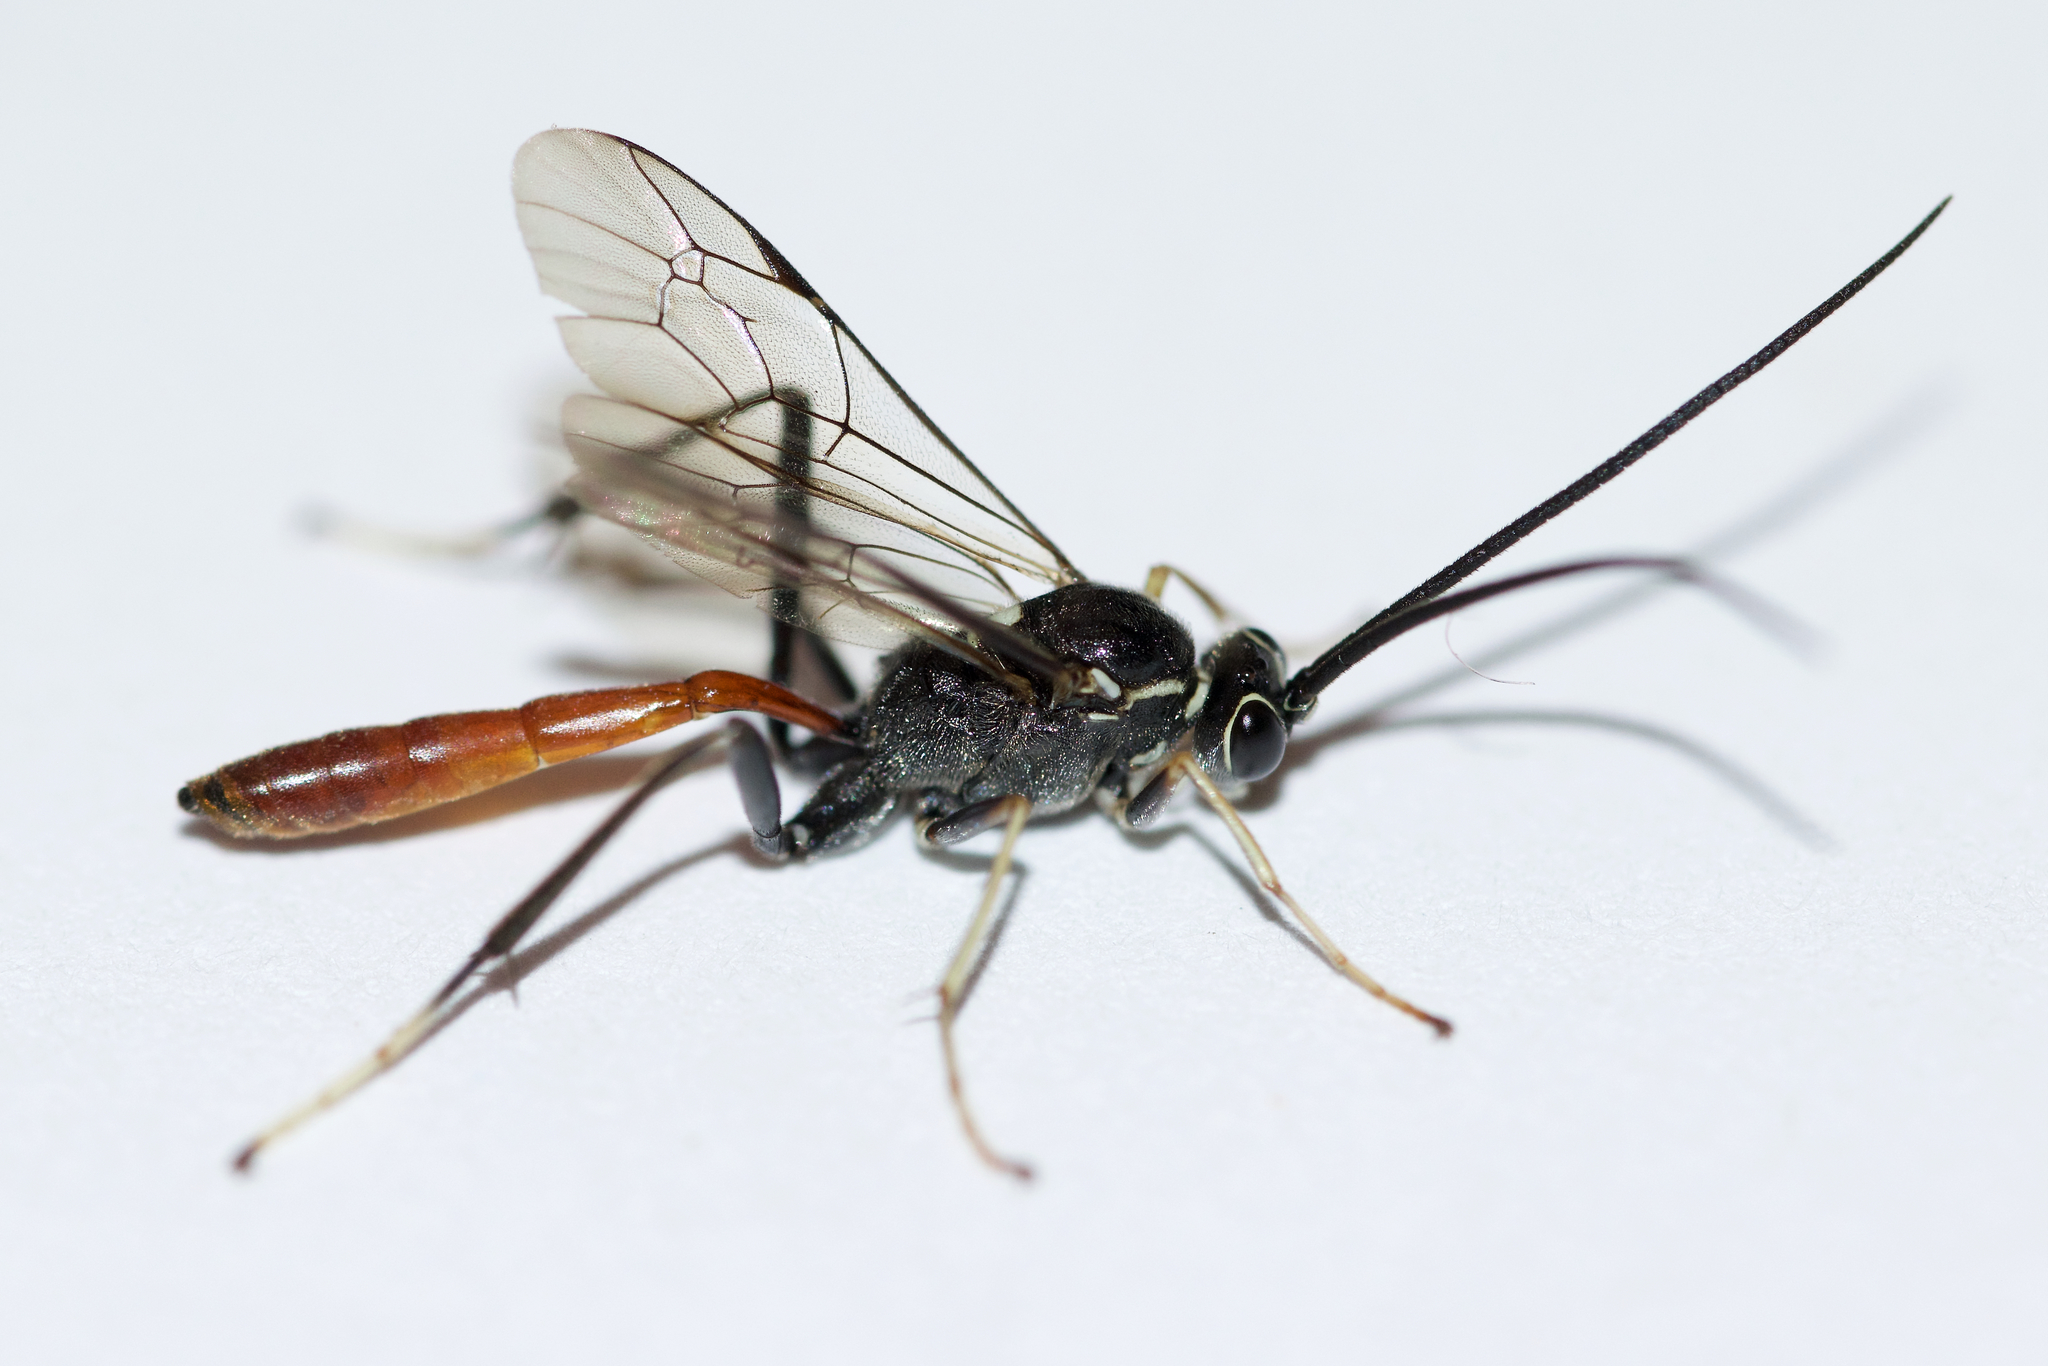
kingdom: Animalia
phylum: Arthropoda
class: Insecta
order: Hymenoptera
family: Ichneumonidae
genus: Cryptus
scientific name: Cryptus albitarsis
